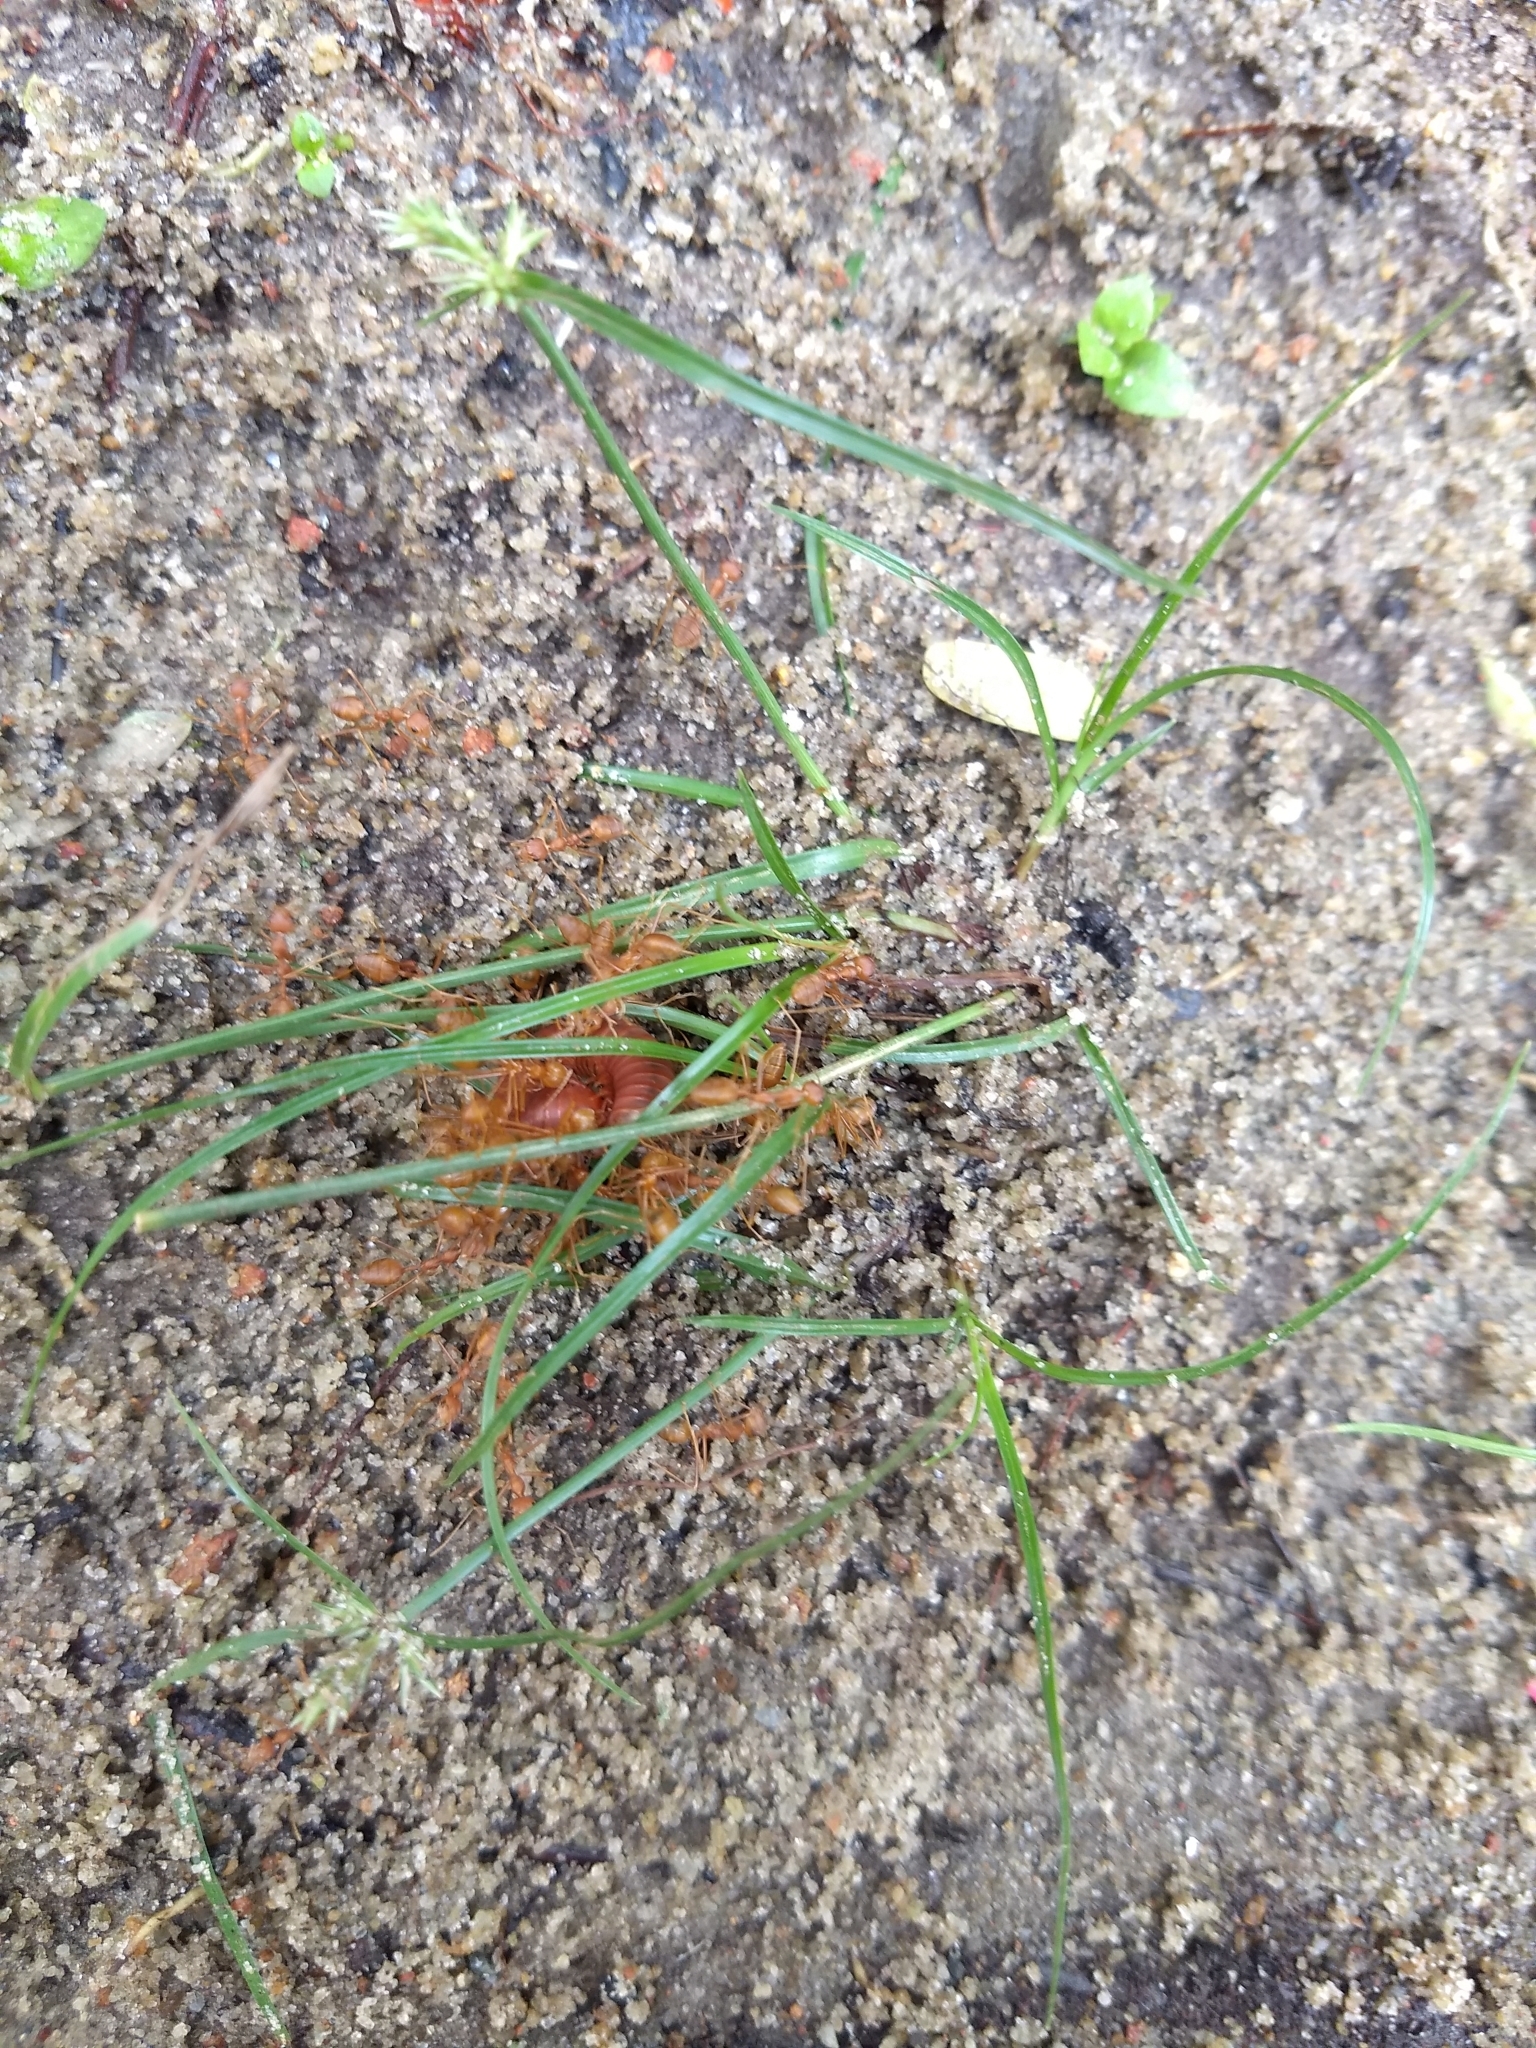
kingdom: Animalia
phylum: Arthropoda
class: Insecta
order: Hymenoptera
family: Formicidae
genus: Oecophylla
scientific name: Oecophylla smaragdina
